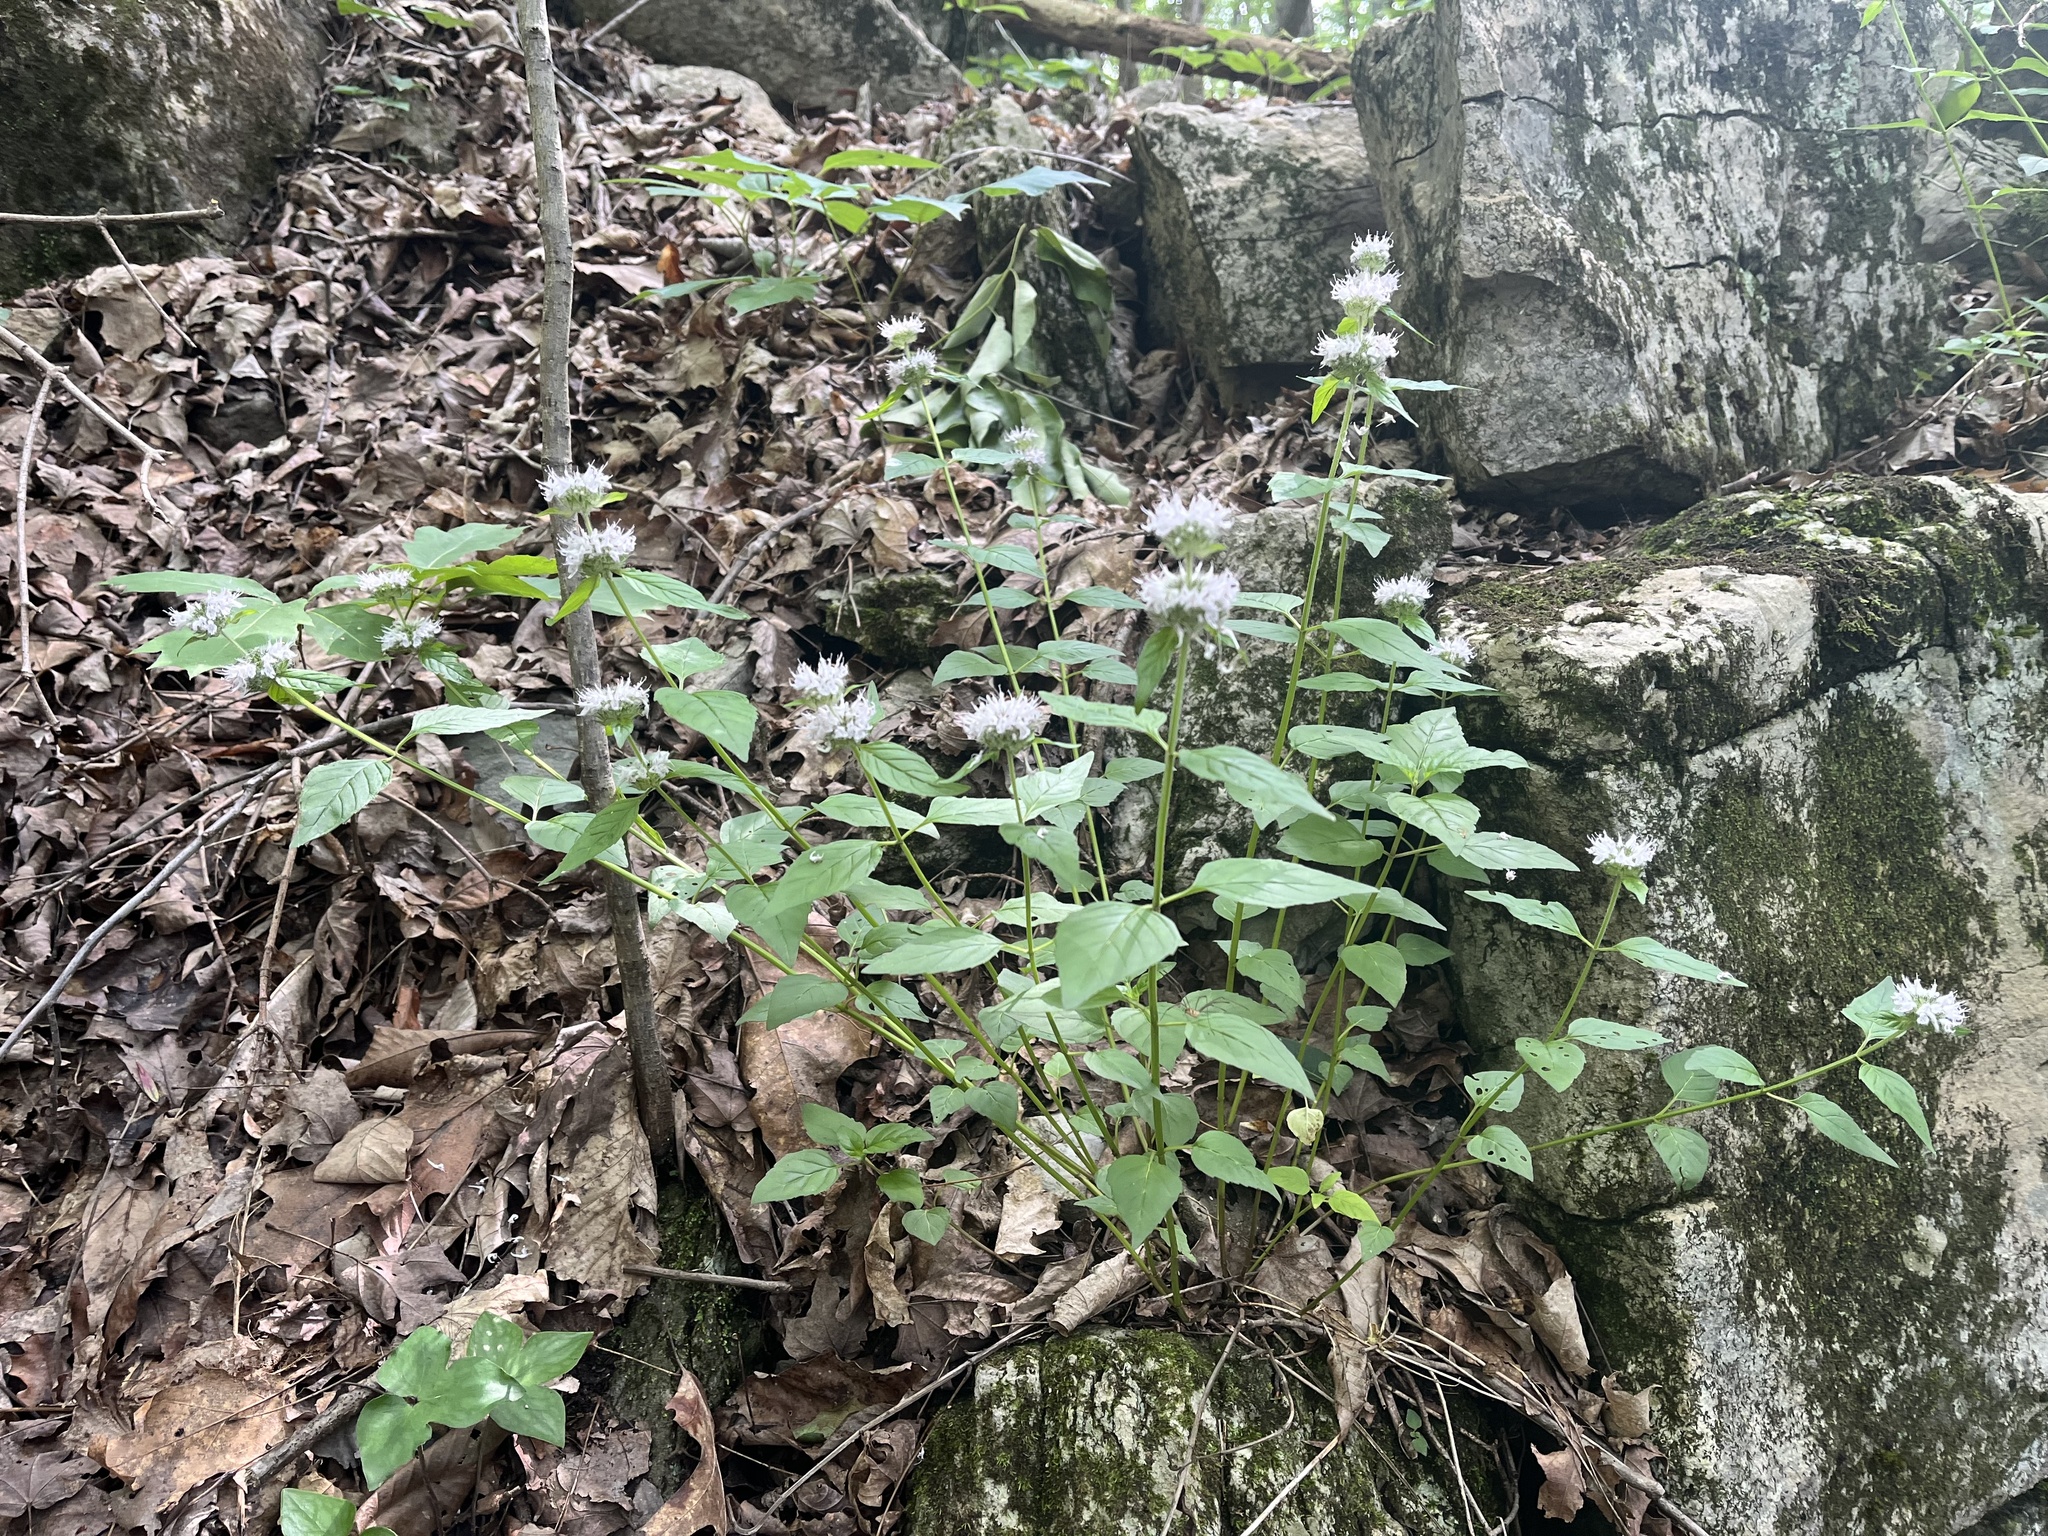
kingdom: Plantae
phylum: Tracheophyta
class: Magnoliopsida
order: Lamiales
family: Lamiaceae
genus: Blephilia
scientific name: Blephilia subnuda
